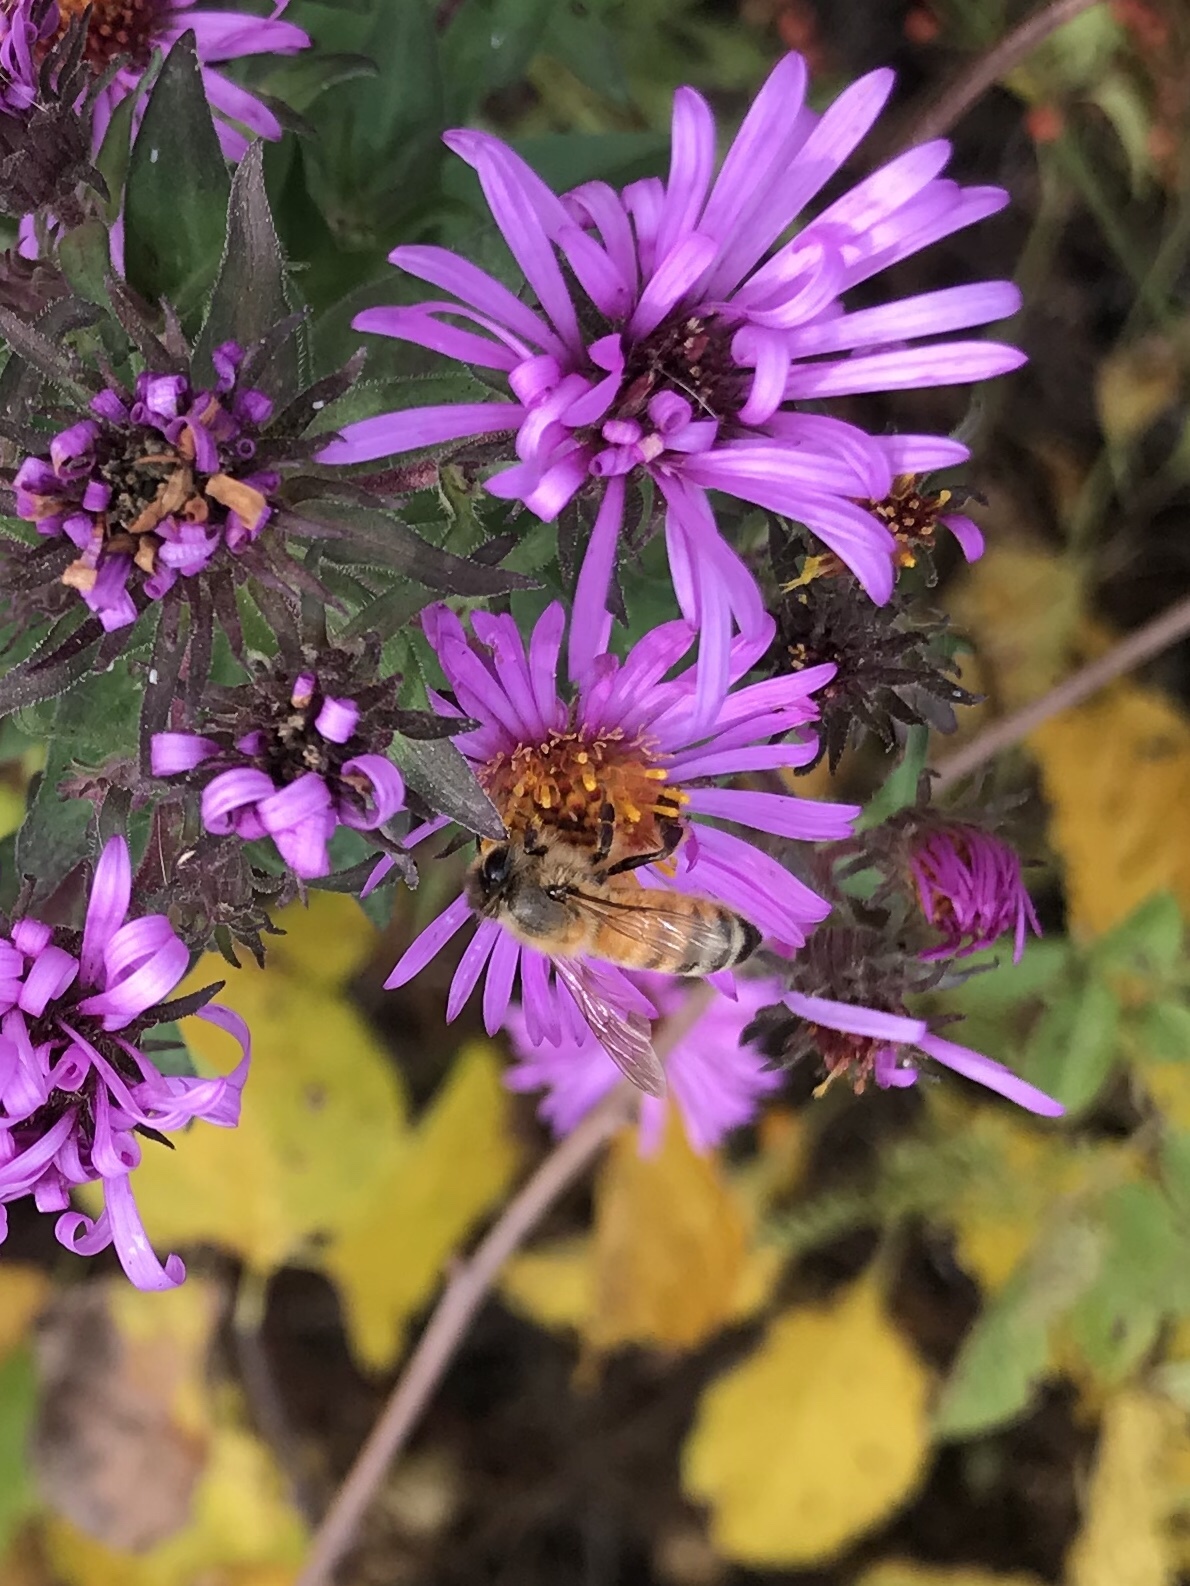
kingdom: Animalia
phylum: Arthropoda
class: Insecta
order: Hymenoptera
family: Apidae
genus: Apis
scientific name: Apis mellifera
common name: Honey bee
